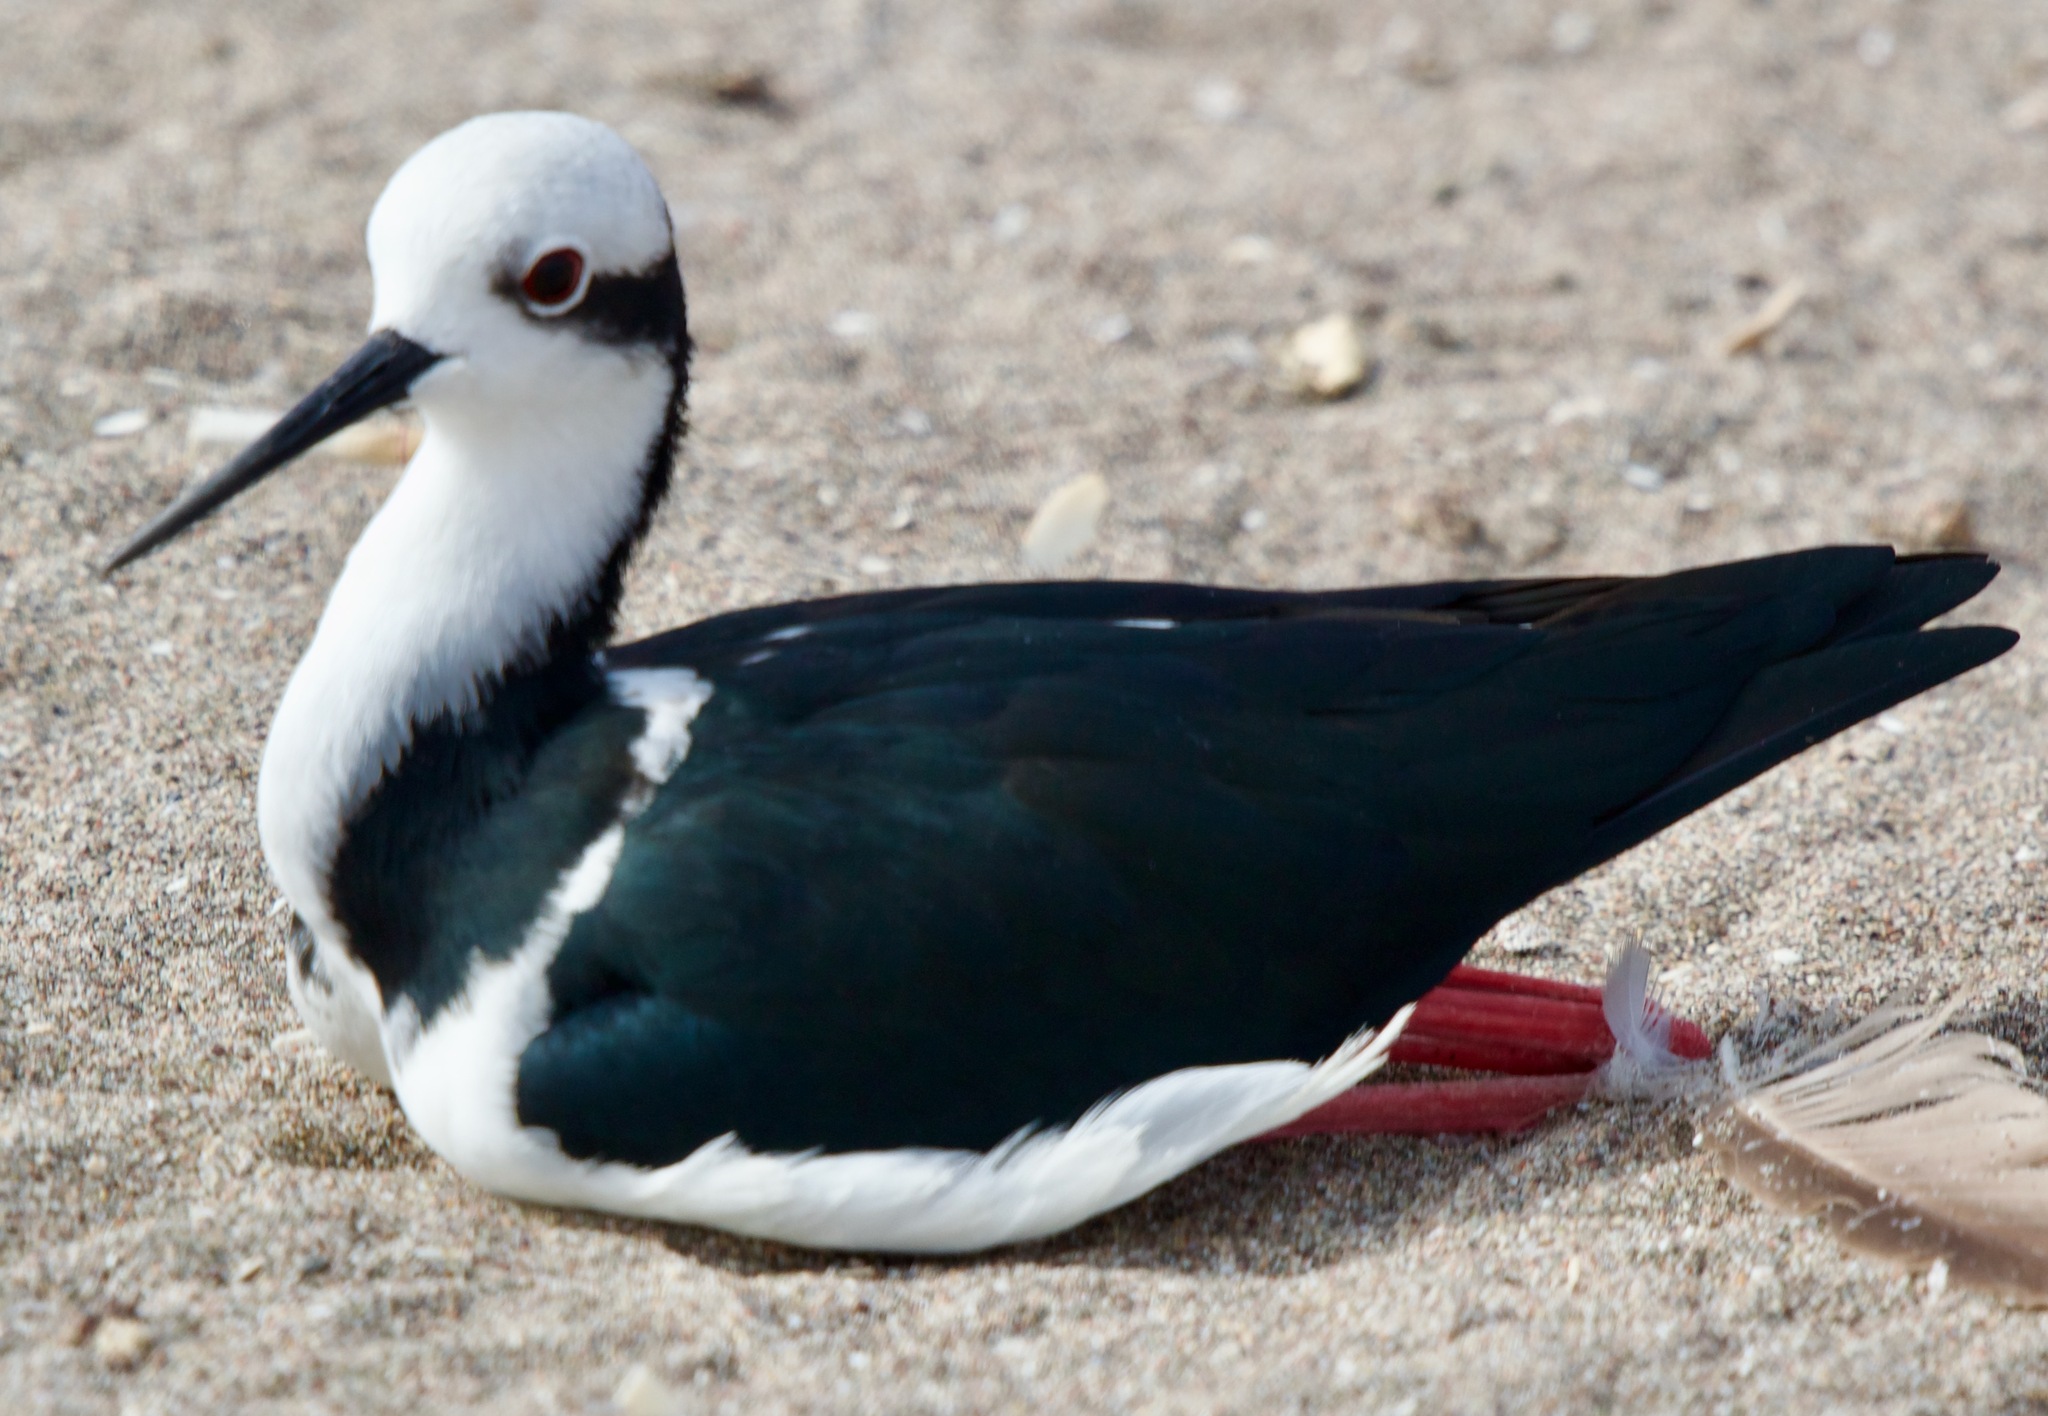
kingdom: Animalia
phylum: Chordata
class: Aves
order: Charadriiformes
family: Recurvirostridae
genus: Himantopus
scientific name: Himantopus mexicanus
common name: Black-necked stilt
